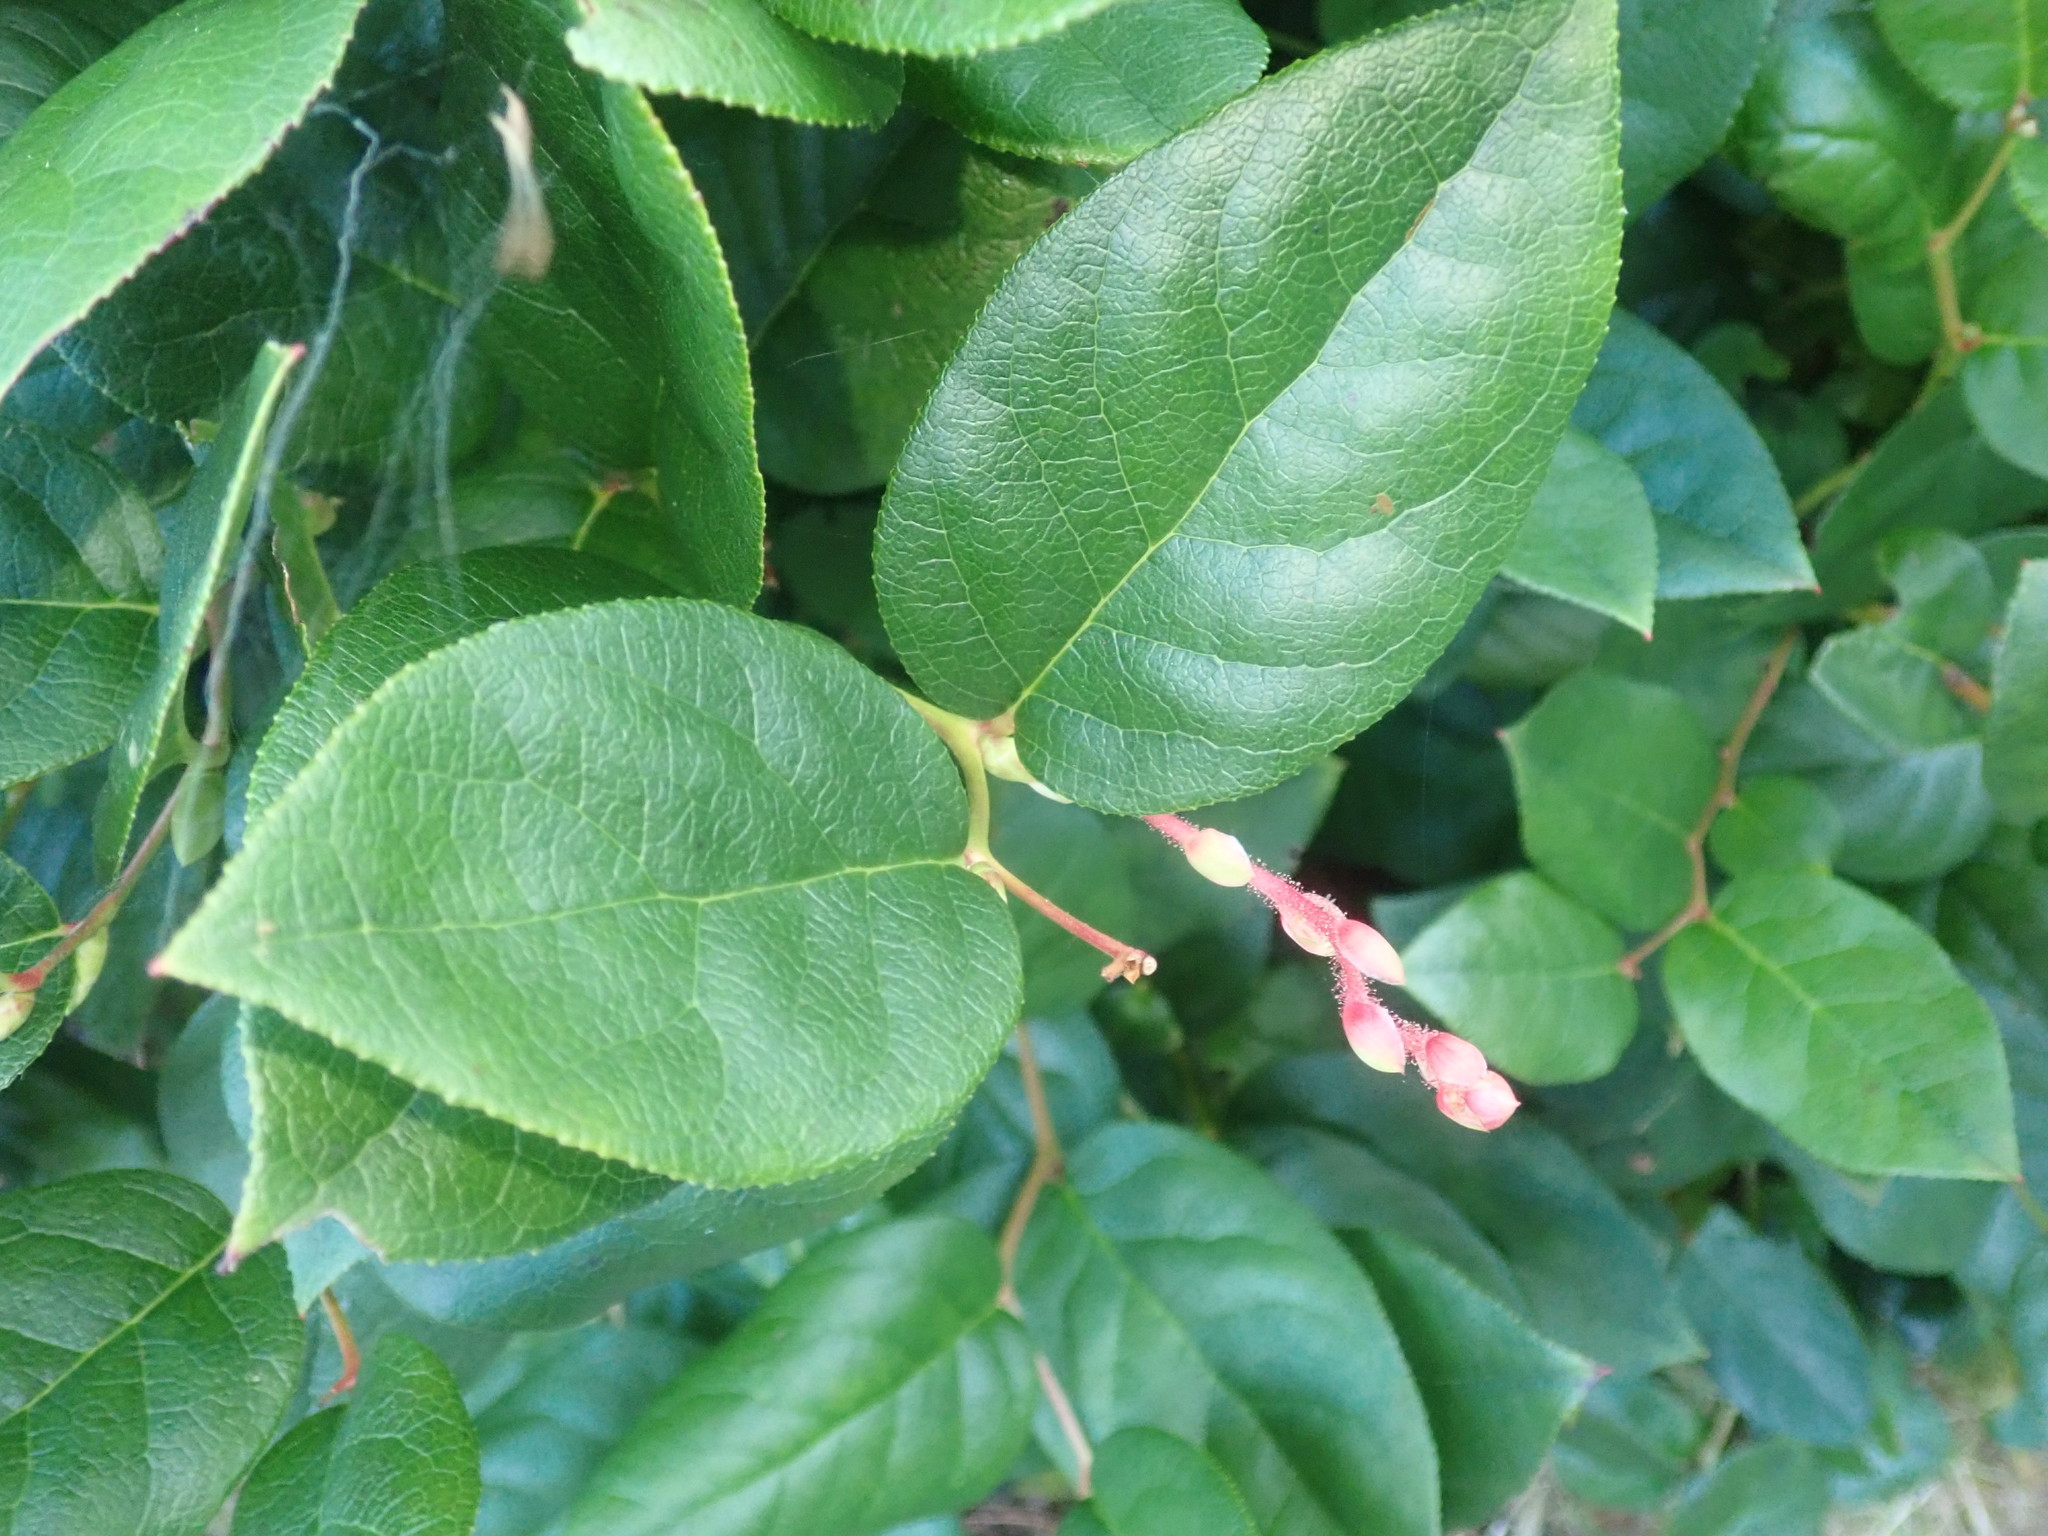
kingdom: Plantae
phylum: Tracheophyta
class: Magnoliopsida
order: Ericales
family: Ericaceae
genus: Gaultheria
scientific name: Gaultheria shallon
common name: Shallon
